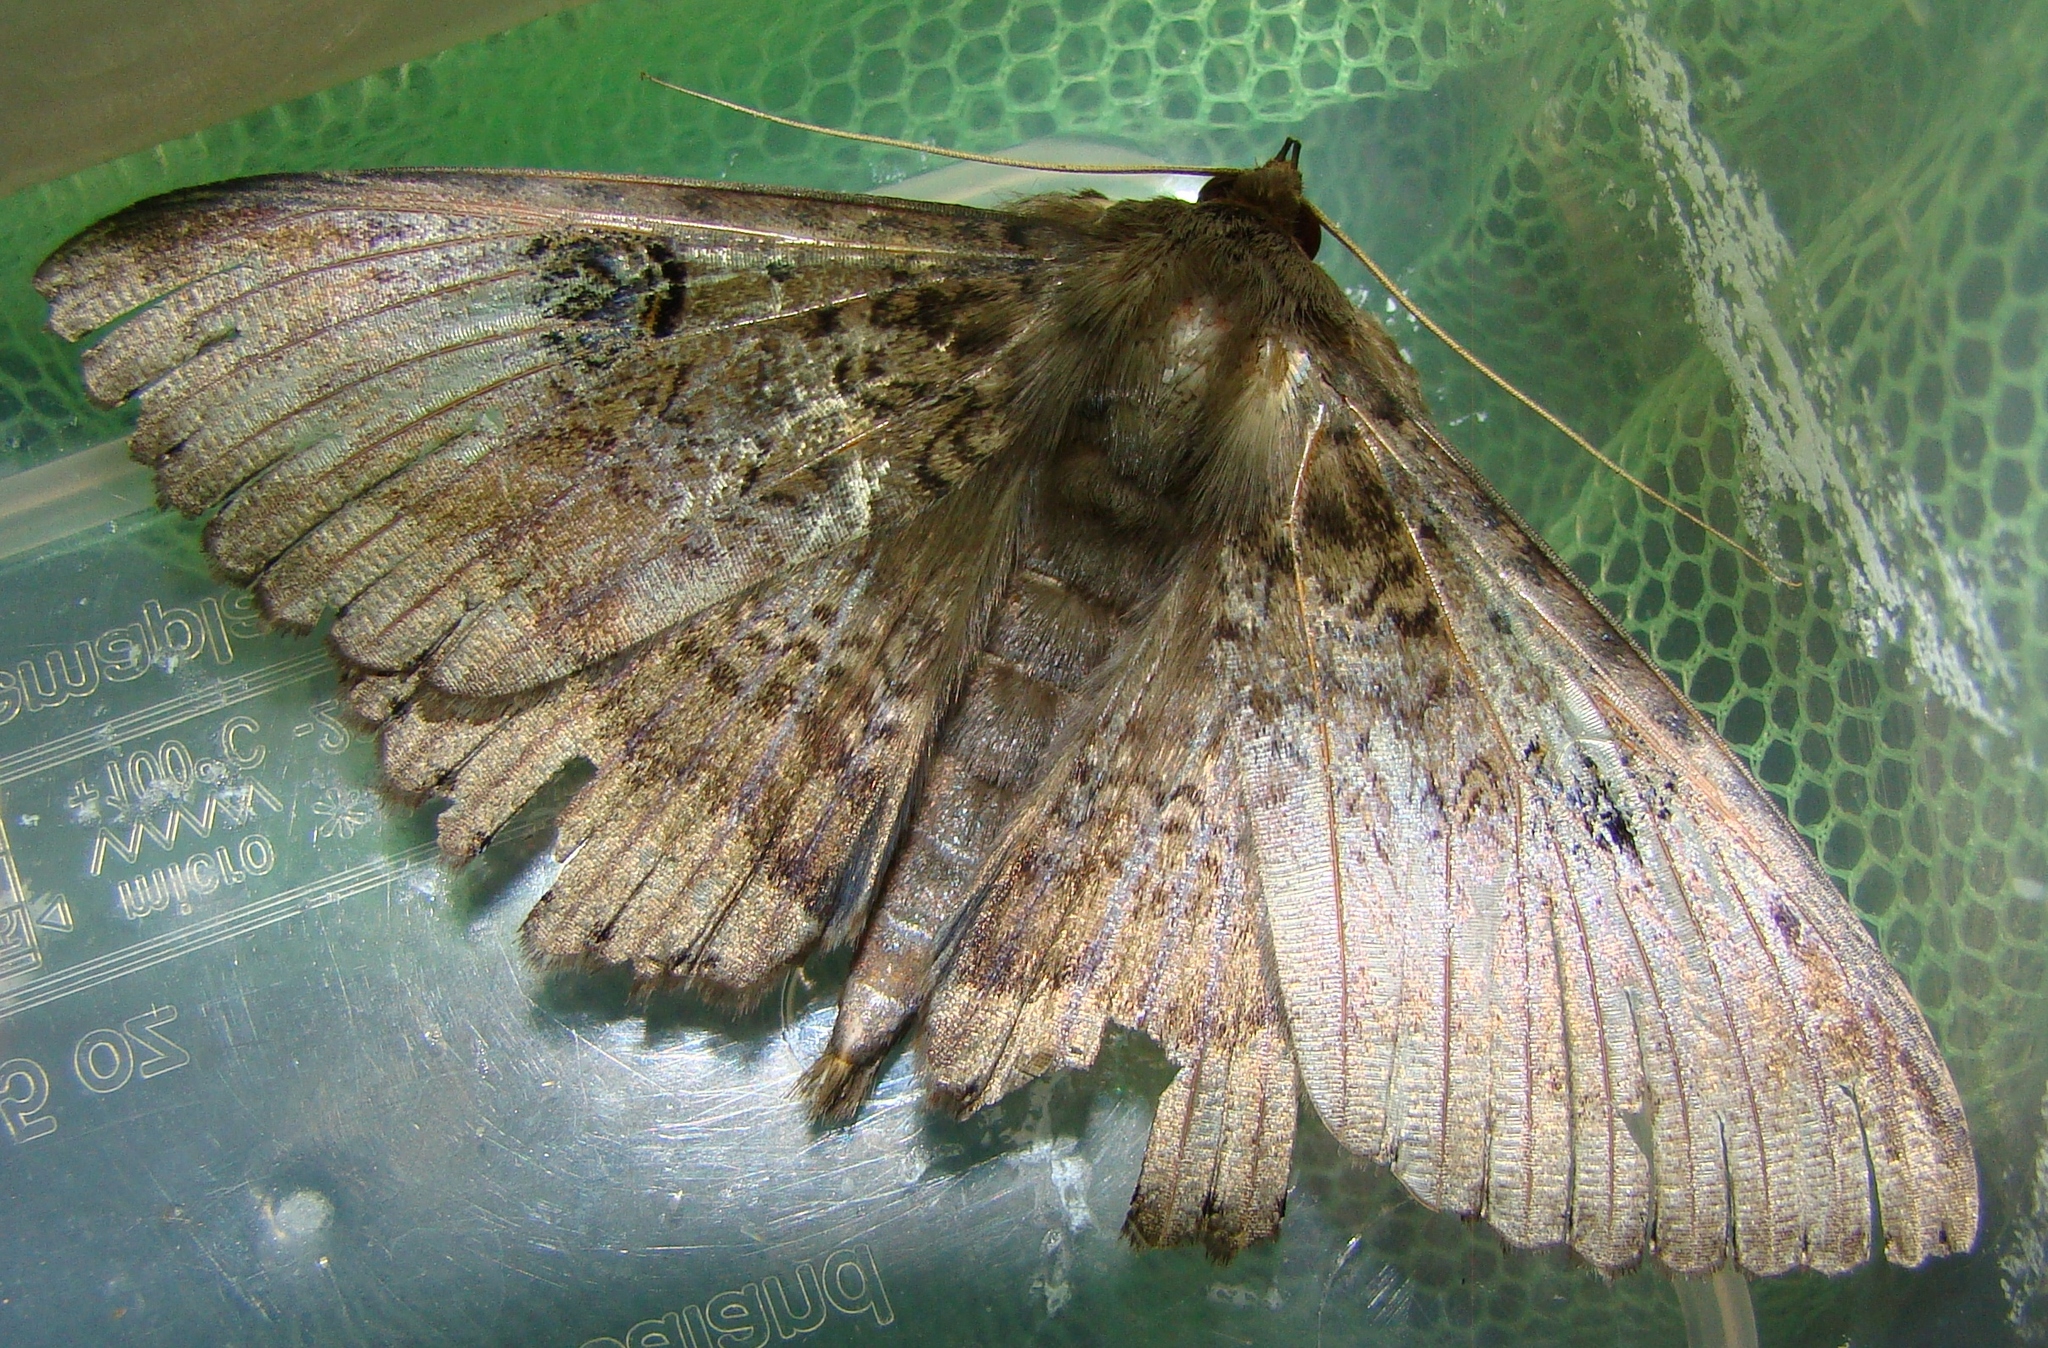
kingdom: Animalia
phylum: Arthropoda
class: Insecta
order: Lepidoptera
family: Erebidae
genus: Dasypodia
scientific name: Dasypodia cymatodes
